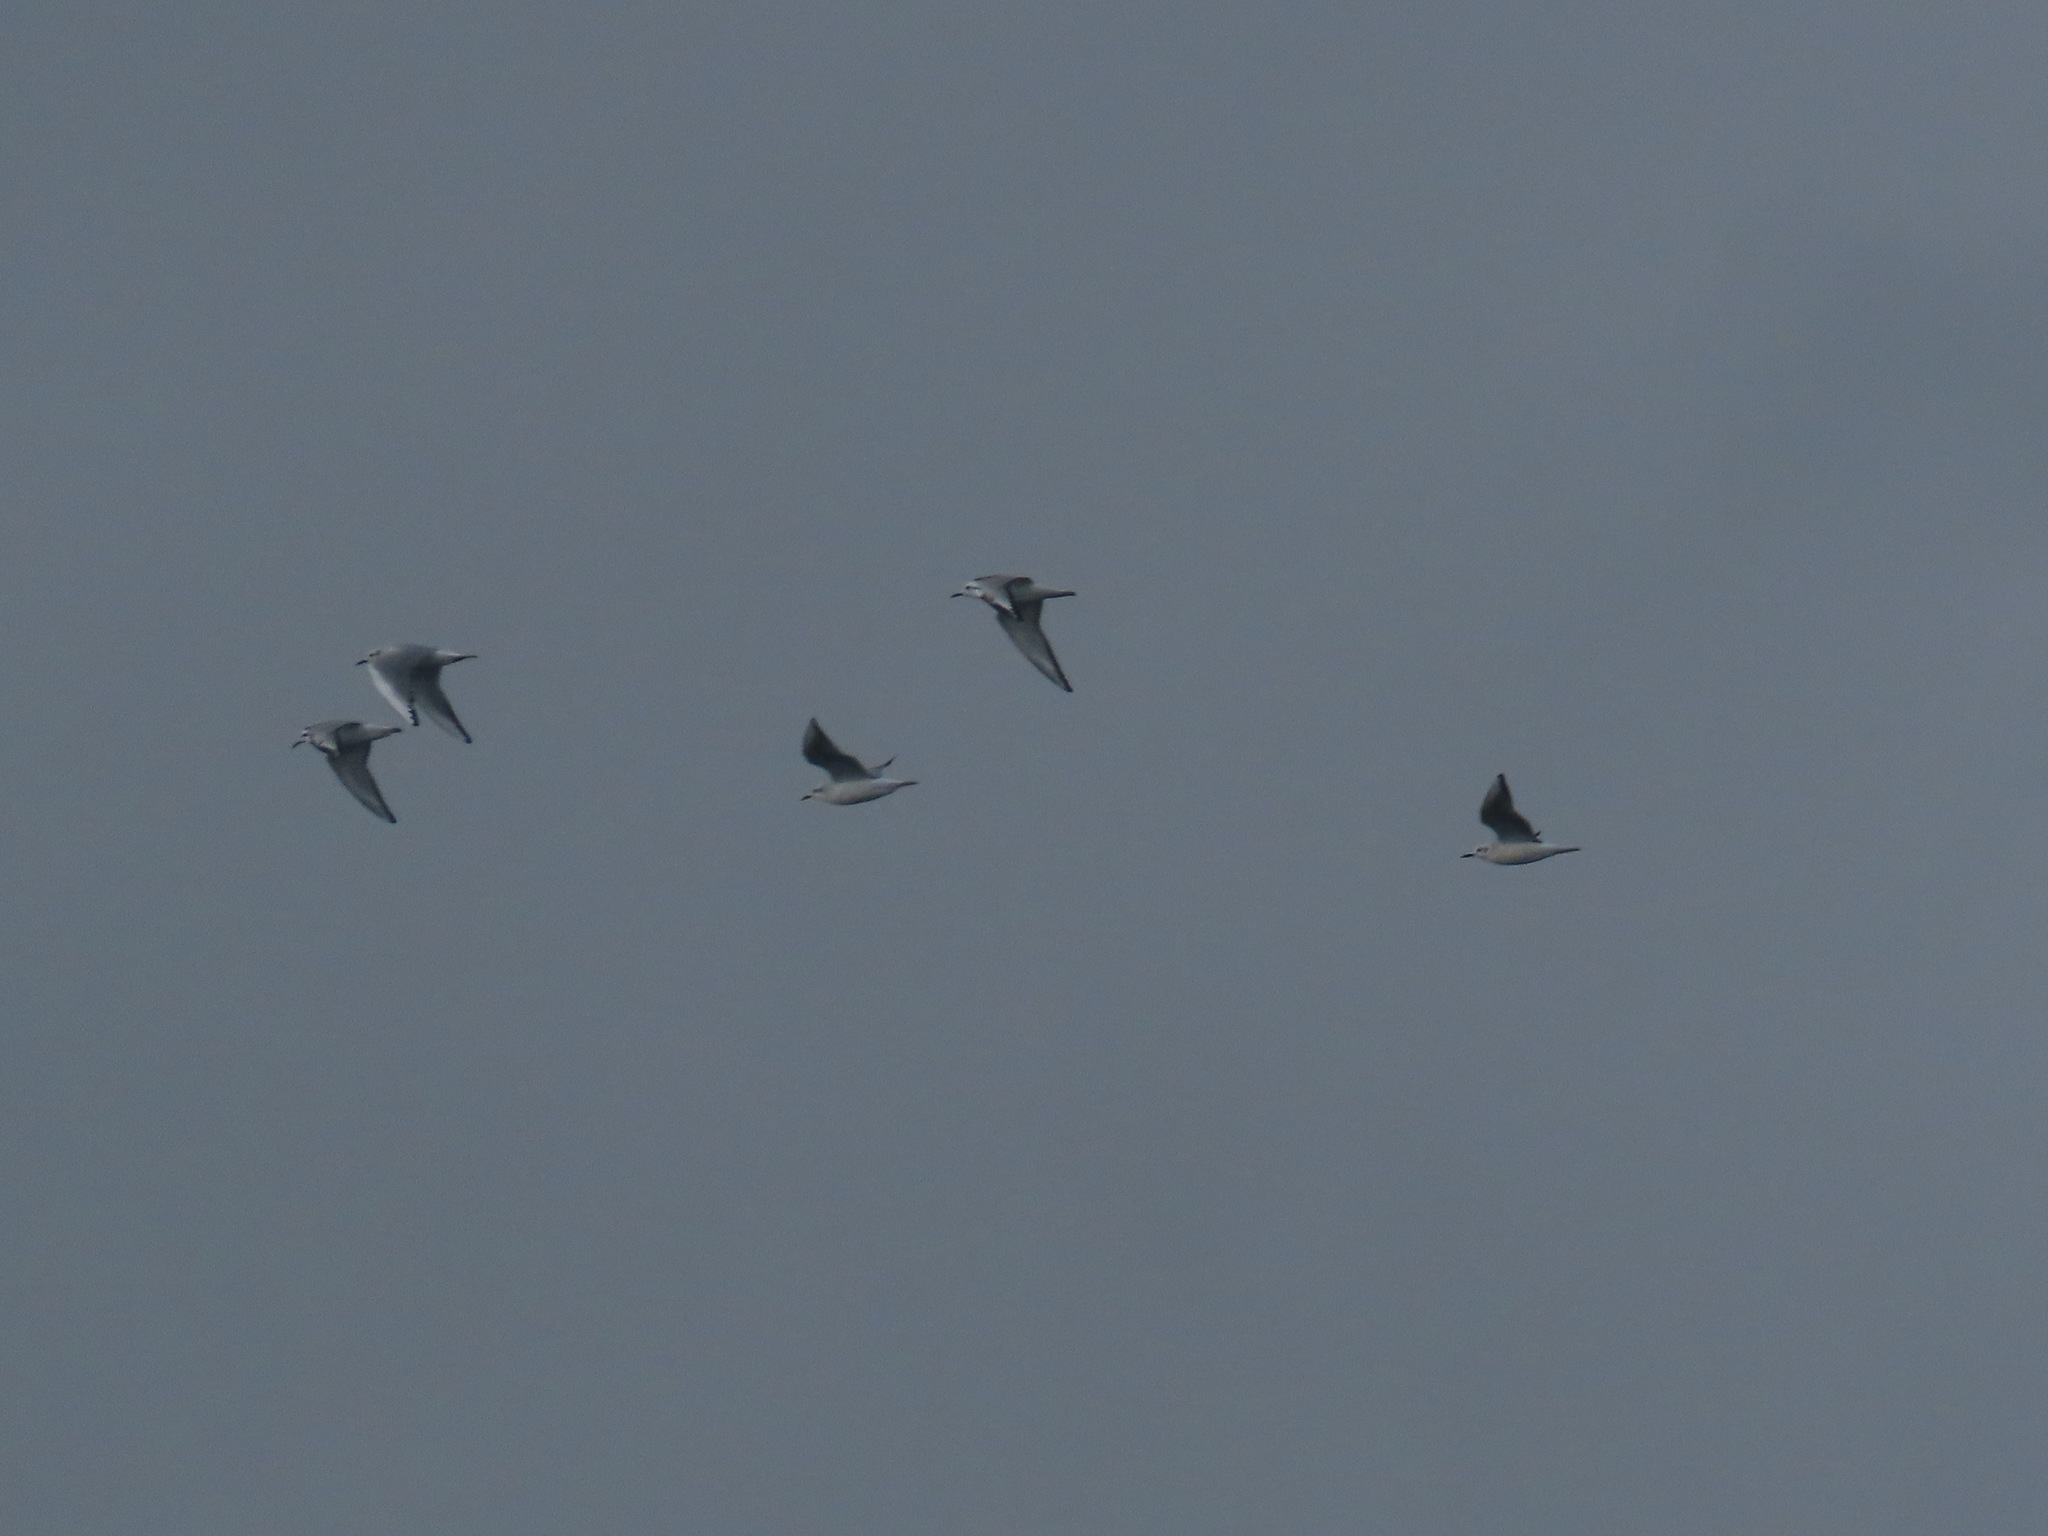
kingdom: Animalia
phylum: Chordata
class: Aves
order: Charadriiformes
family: Laridae
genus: Chroicocephalus
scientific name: Chroicocephalus philadelphia
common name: Bonaparte's gull
